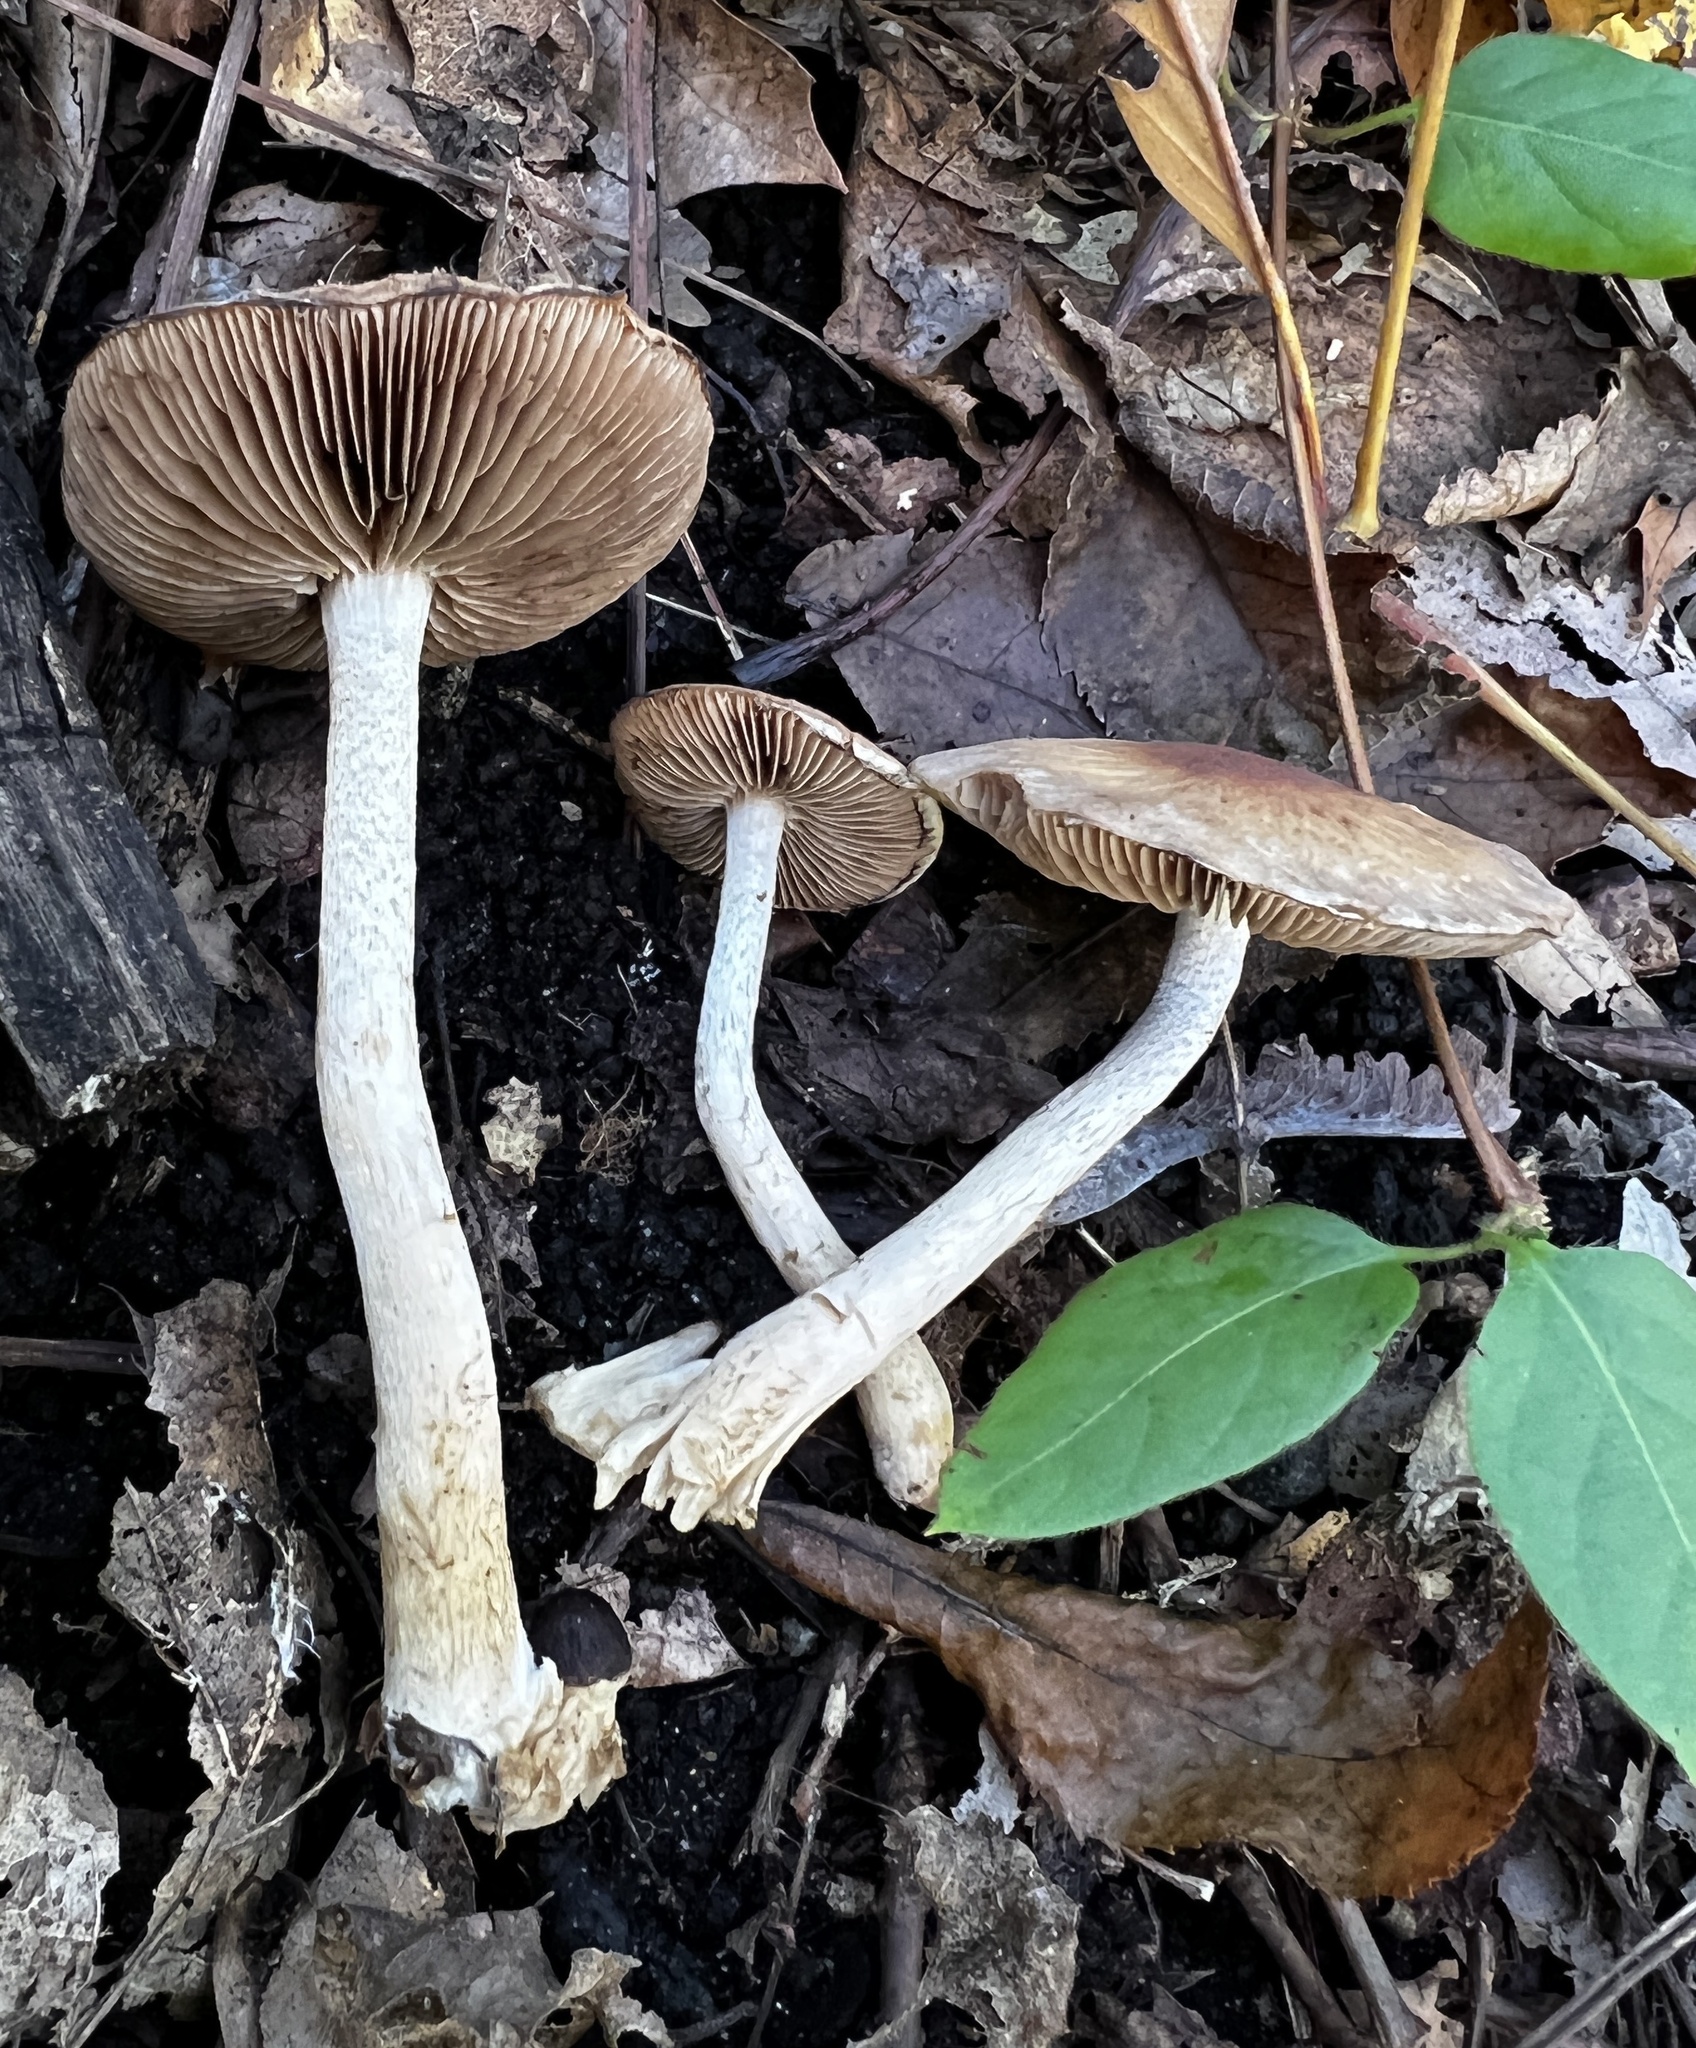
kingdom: Fungi
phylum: Basidiomycota
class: Agaricomycetes
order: Agaricales
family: Psathyrellaceae
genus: Typhrasa
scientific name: Typhrasa gossypina
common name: Wrinkled psathyrella
